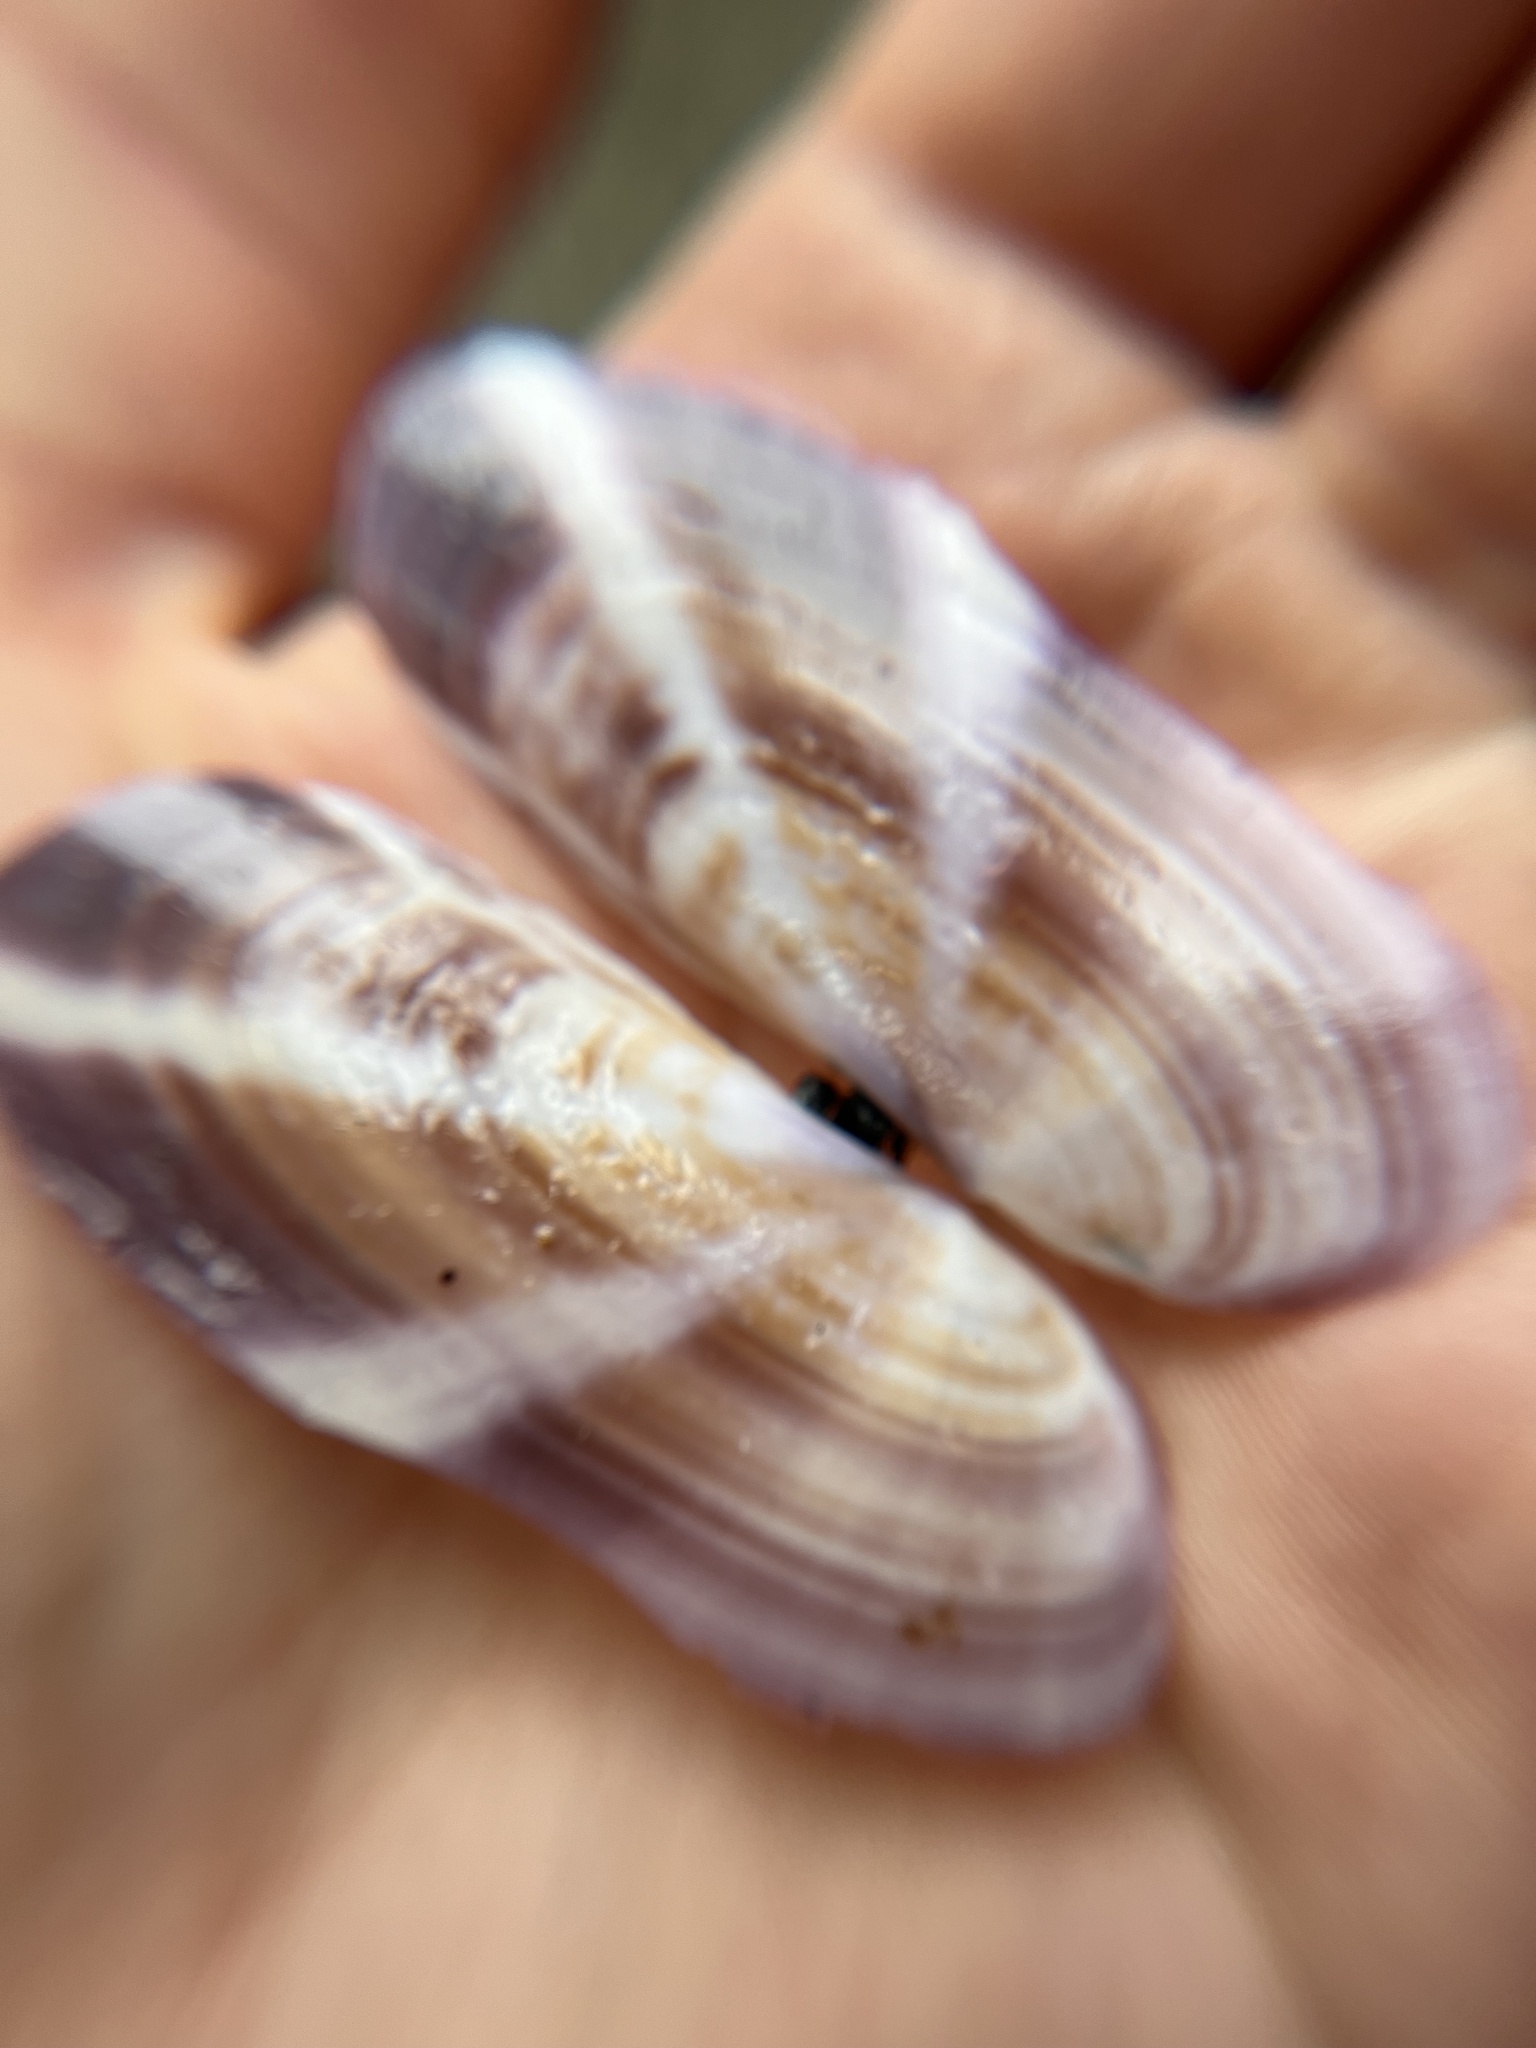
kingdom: Animalia
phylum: Mollusca
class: Bivalvia
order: Adapedonta
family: Pharidae
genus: Siliqua
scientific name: Siliqua patula
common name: Pacific razor clam
